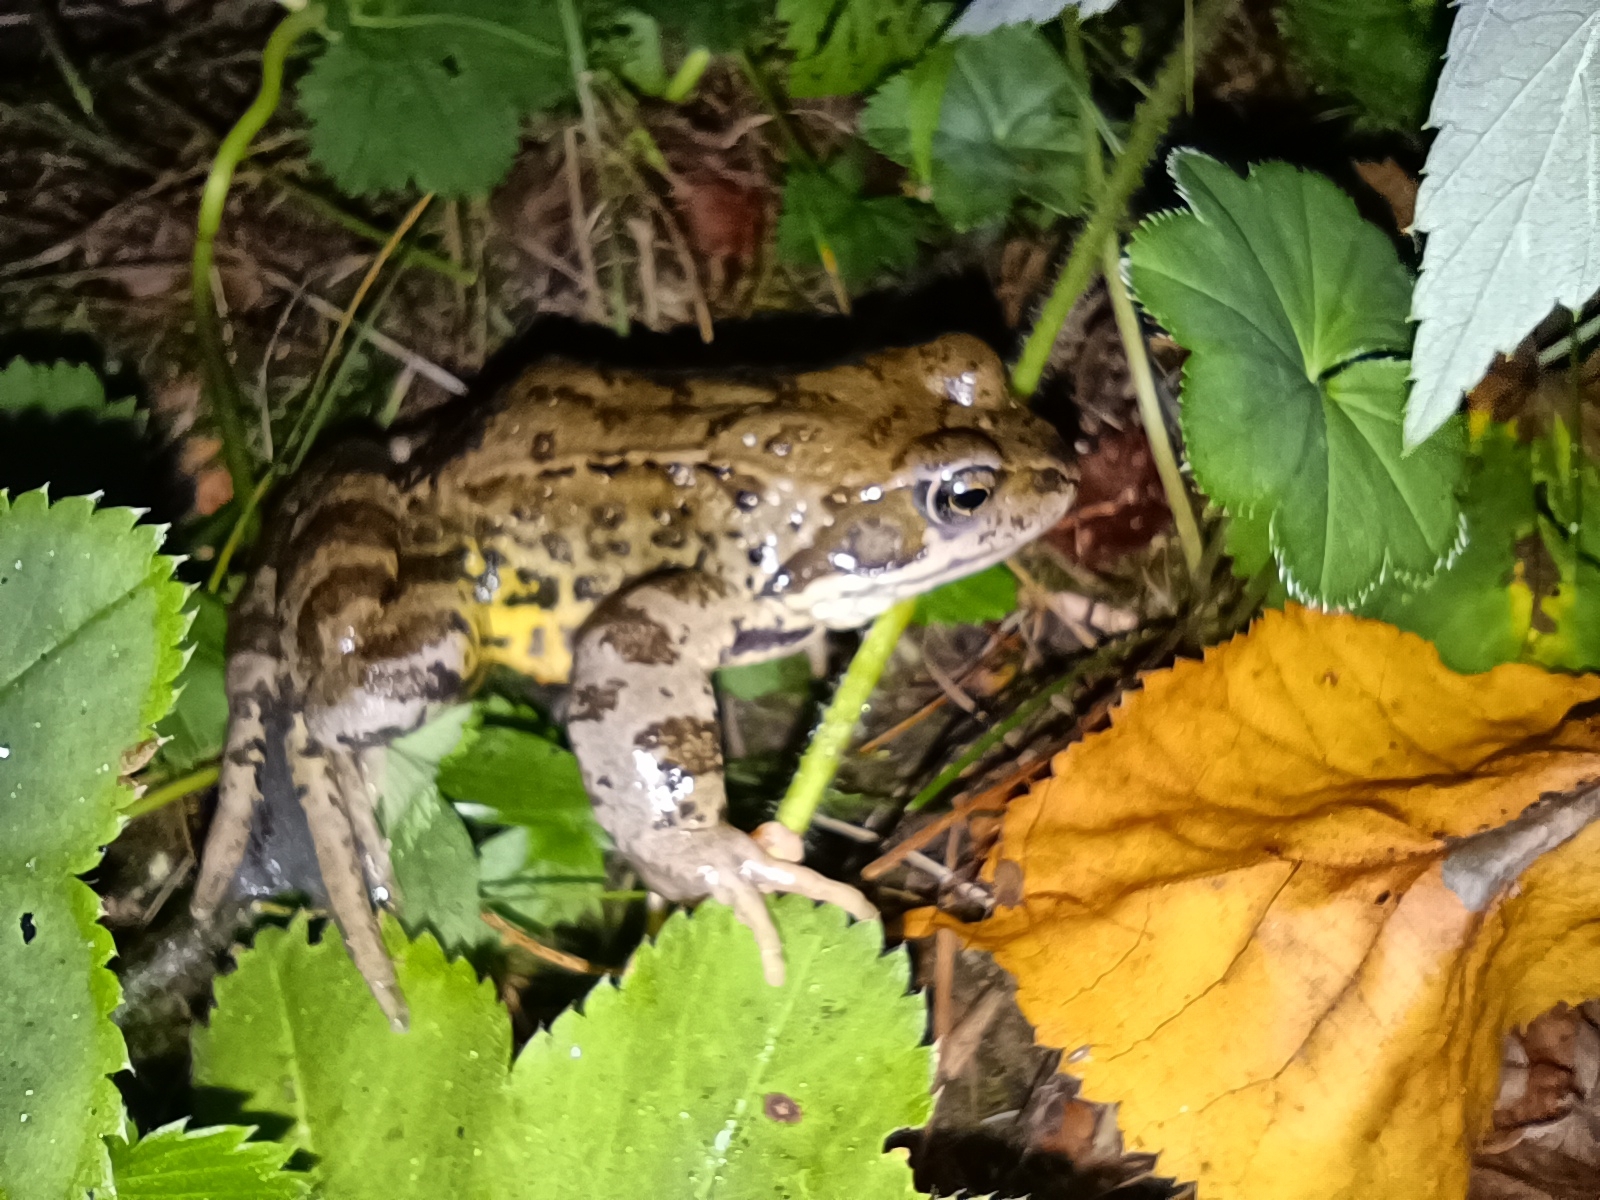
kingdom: Animalia
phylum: Chordata
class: Amphibia
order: Anura
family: Ranidae
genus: Rana
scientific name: Rana temporaria
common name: Common frog
